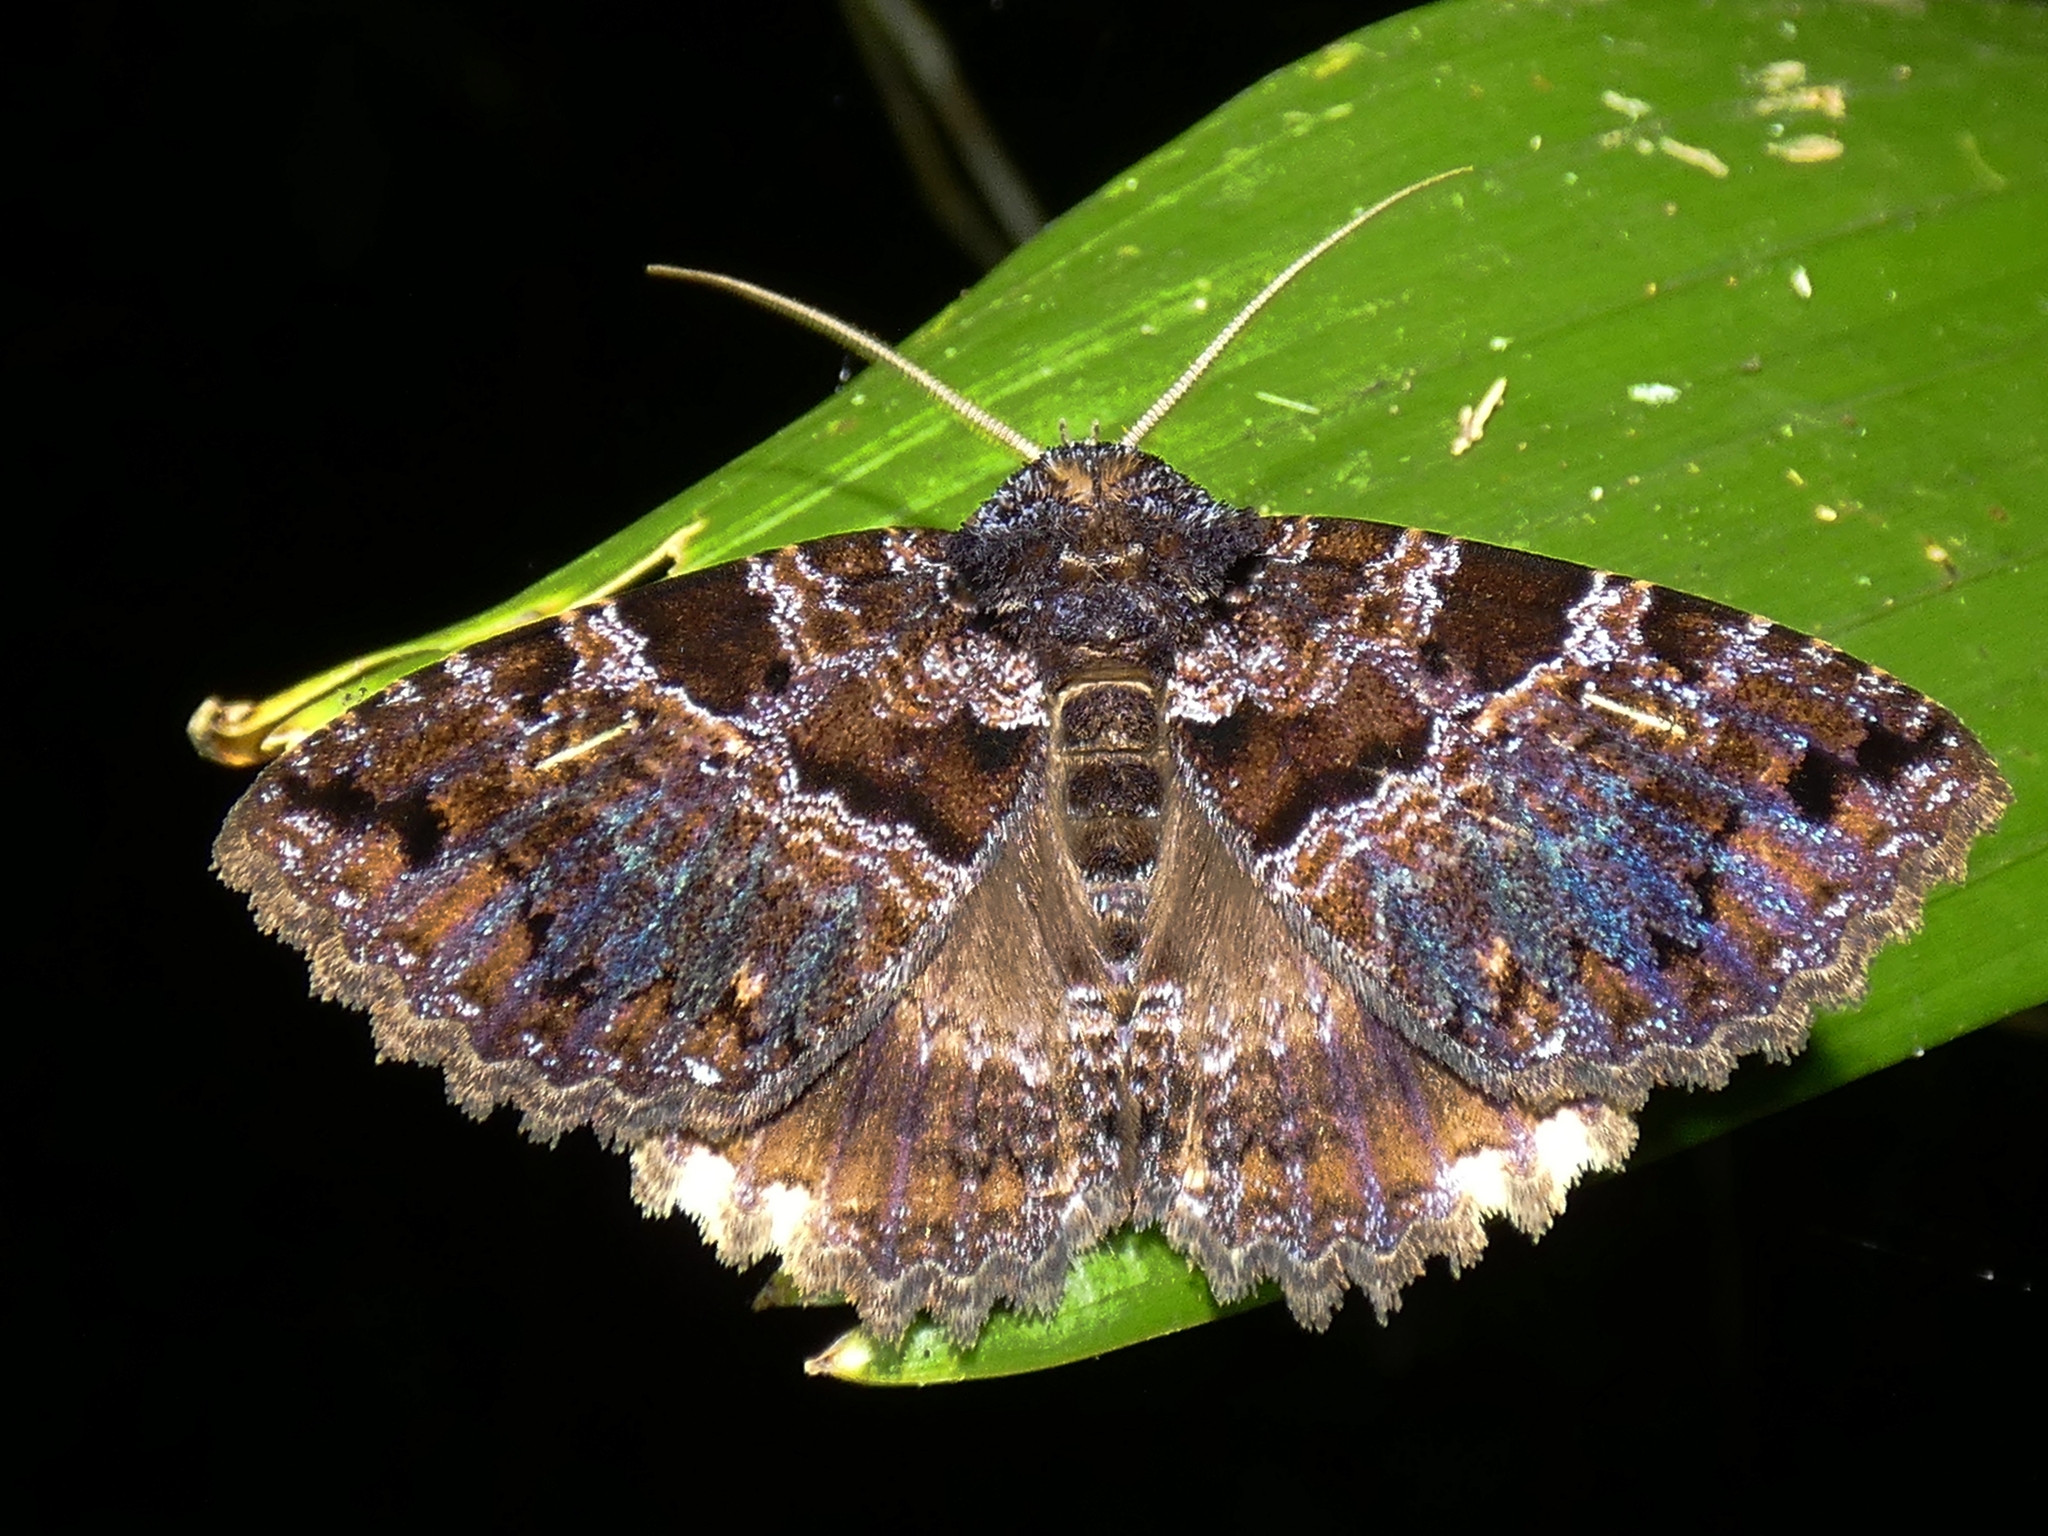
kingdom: Animalia
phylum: Arthropoda
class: Insecta
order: Lepidoptera
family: Erebidae
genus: Sypna
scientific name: Sypna buruensis
